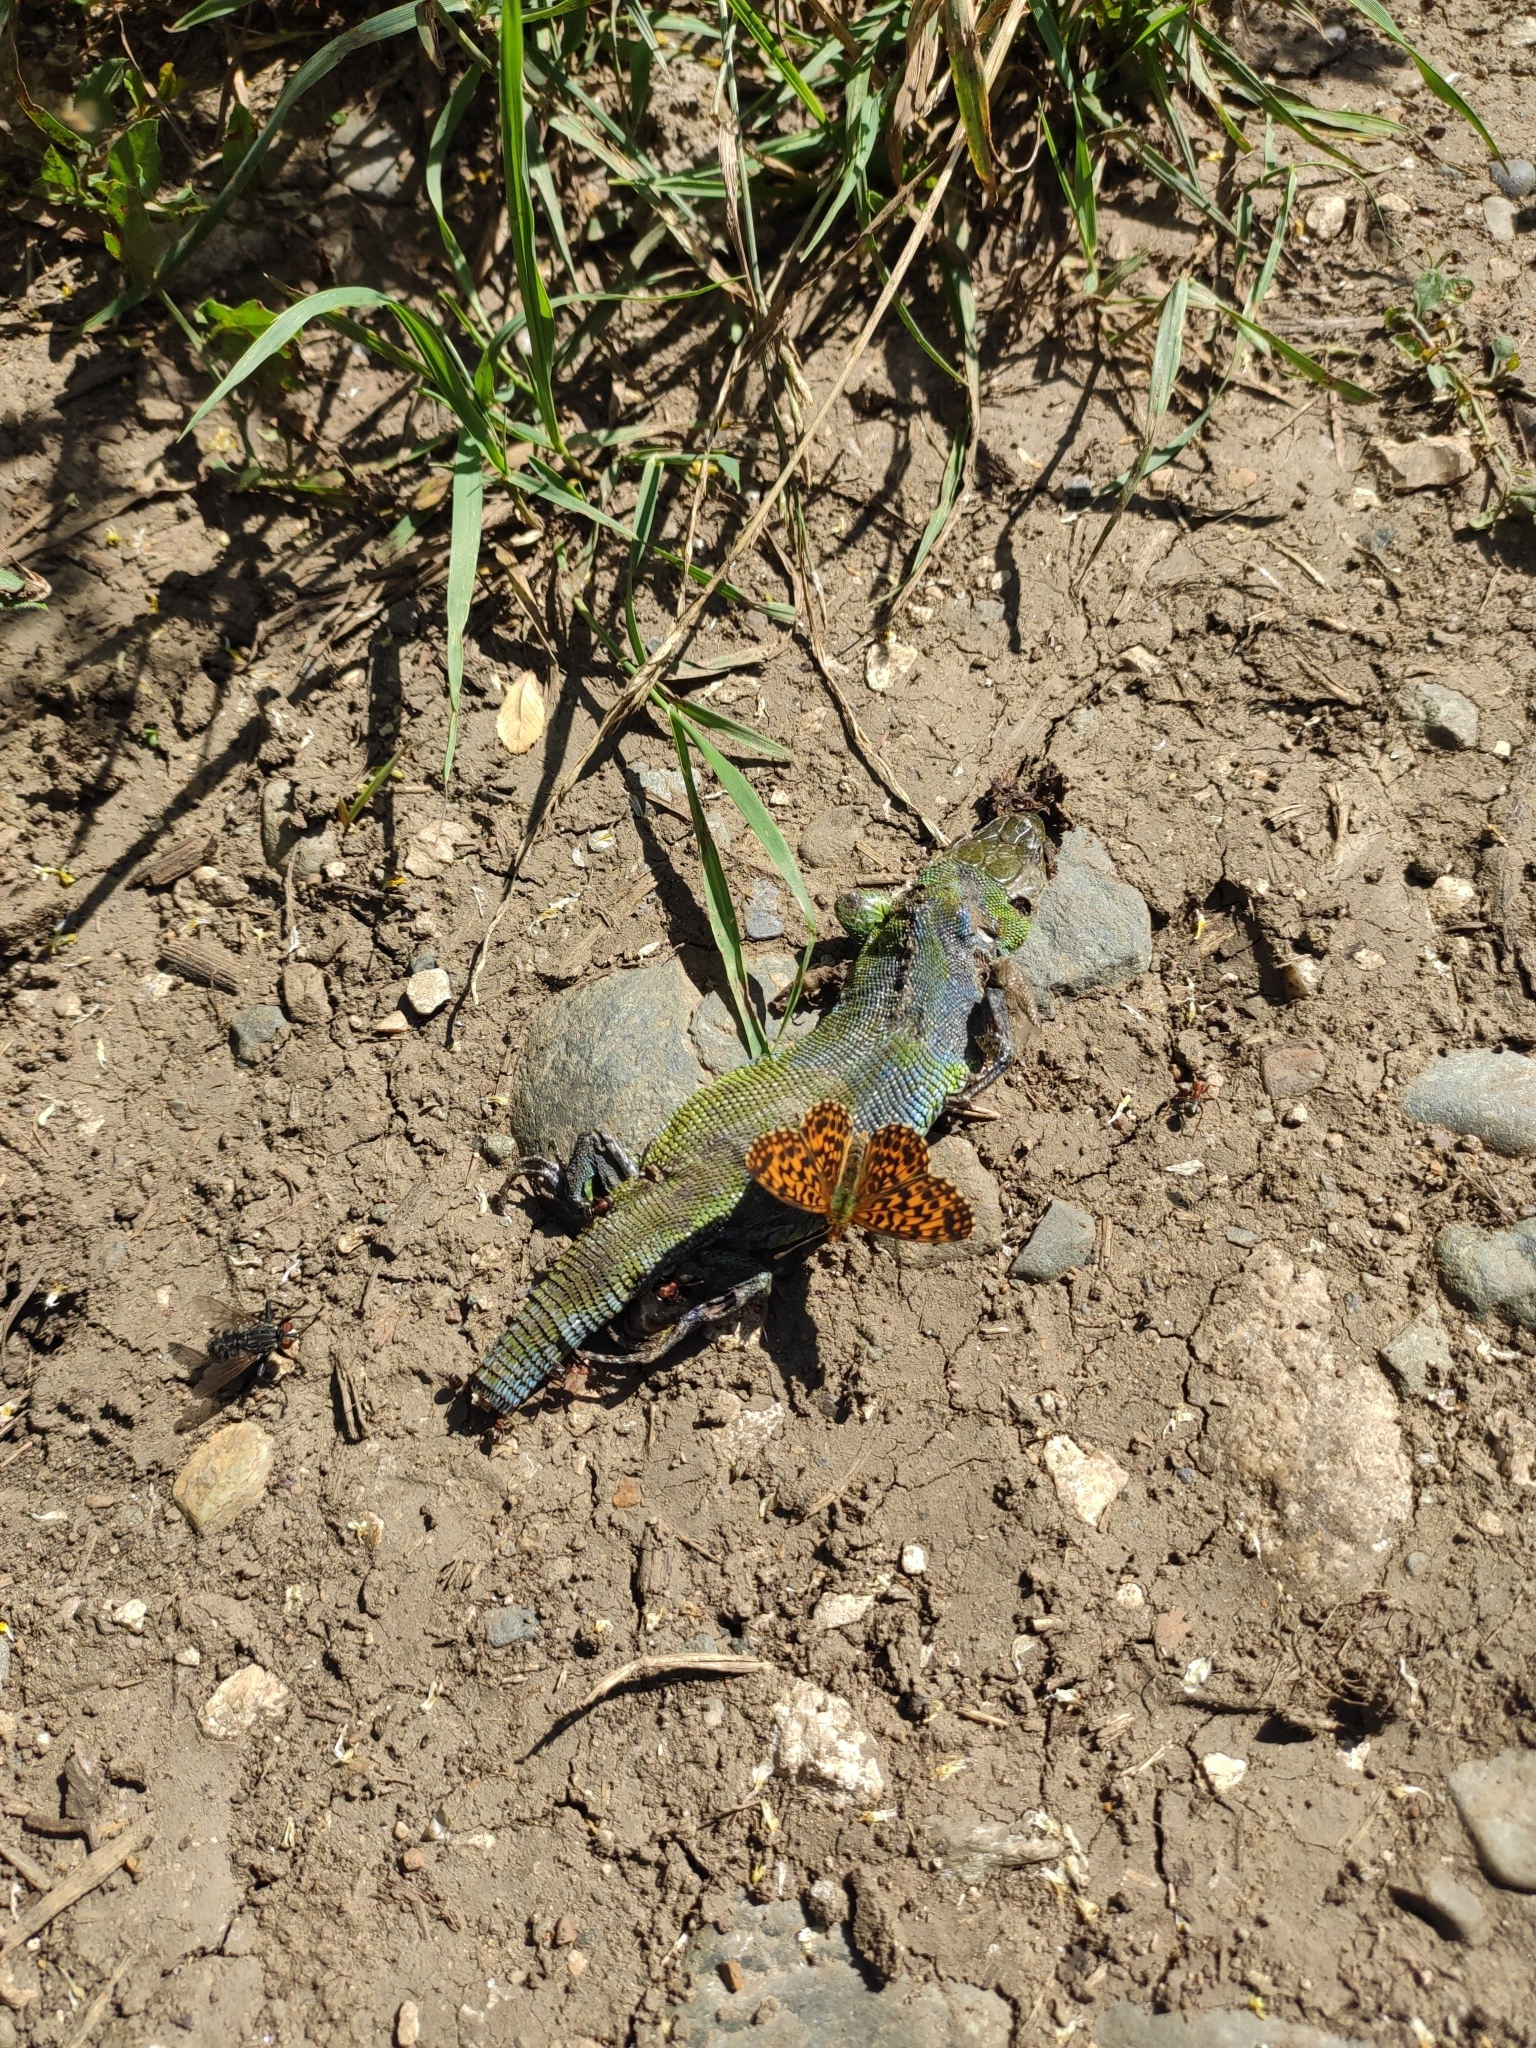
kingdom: Animalia
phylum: Arthropoda
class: Insecta
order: Lepidoptera
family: Nymphalidae
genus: Boloria
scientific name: Boloria dia
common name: Weaver's fritillary
